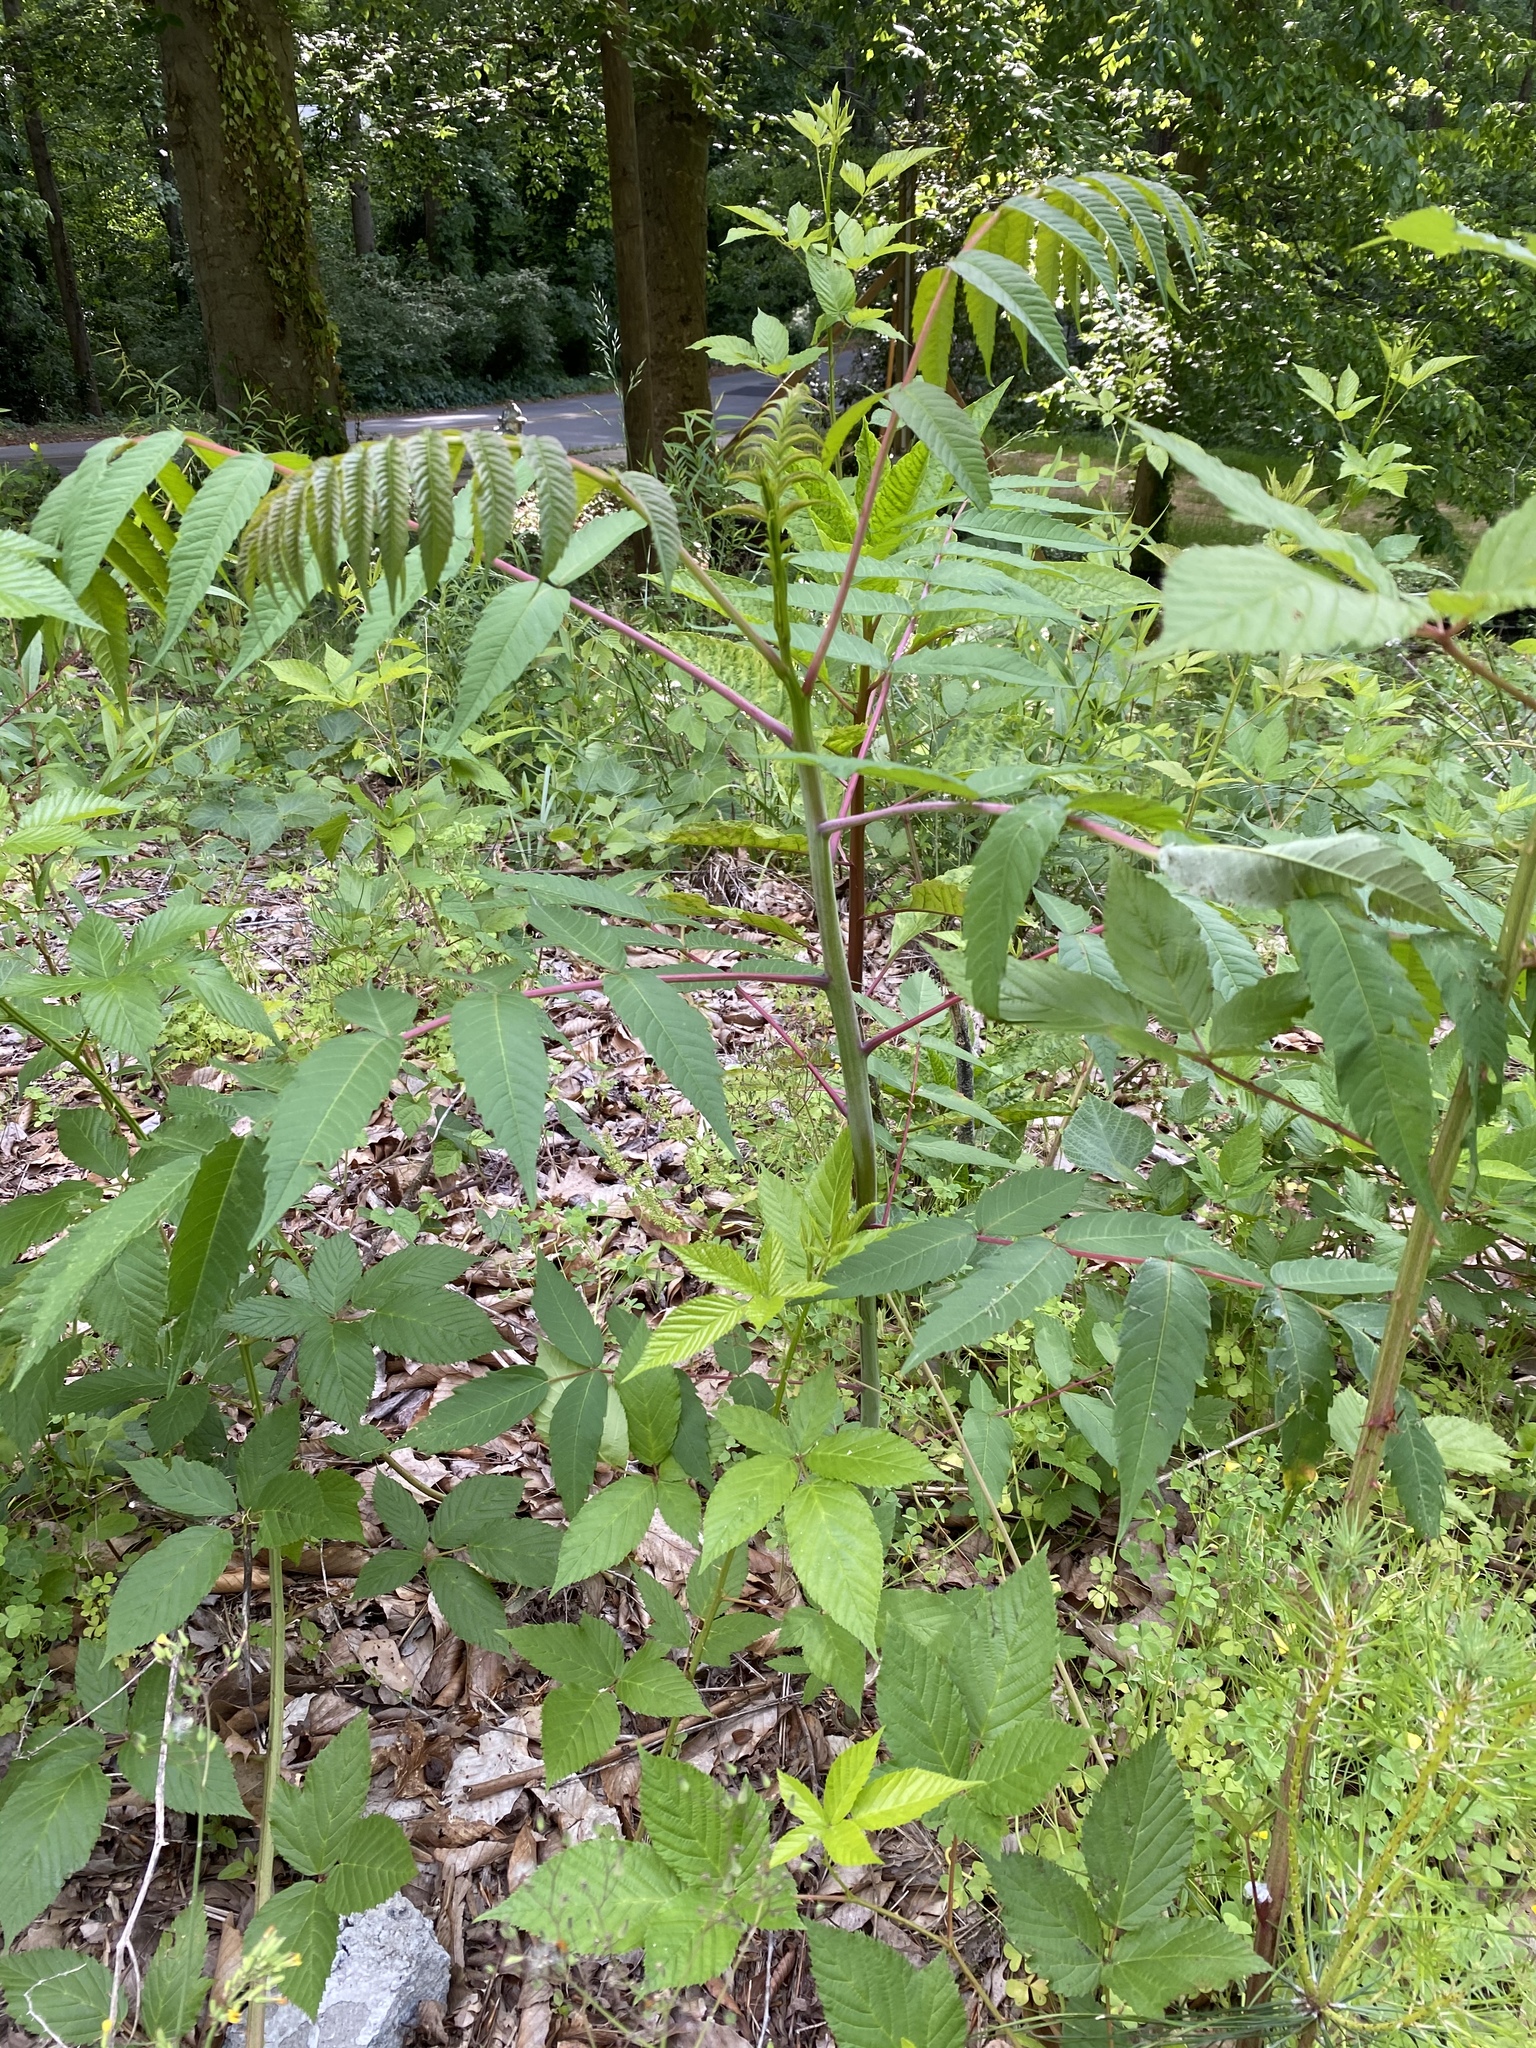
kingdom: Plantae
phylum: Tracheophyta
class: Magnoliopsida
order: Sapindales
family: Anacardiaceae
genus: Rhus
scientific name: Rhus glabra
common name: Scarlet sumac
